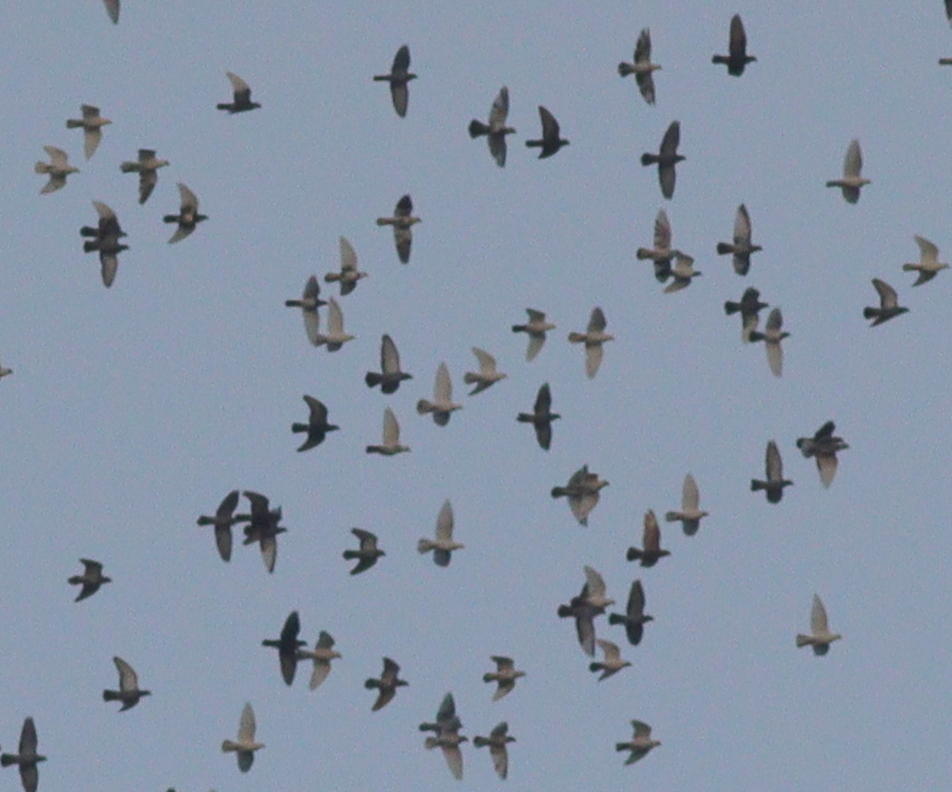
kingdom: Animalia
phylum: Chordata
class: Aves
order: Columbiformes
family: Columbidae
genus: Columba
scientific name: Columba livia
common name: Rock pigeon
